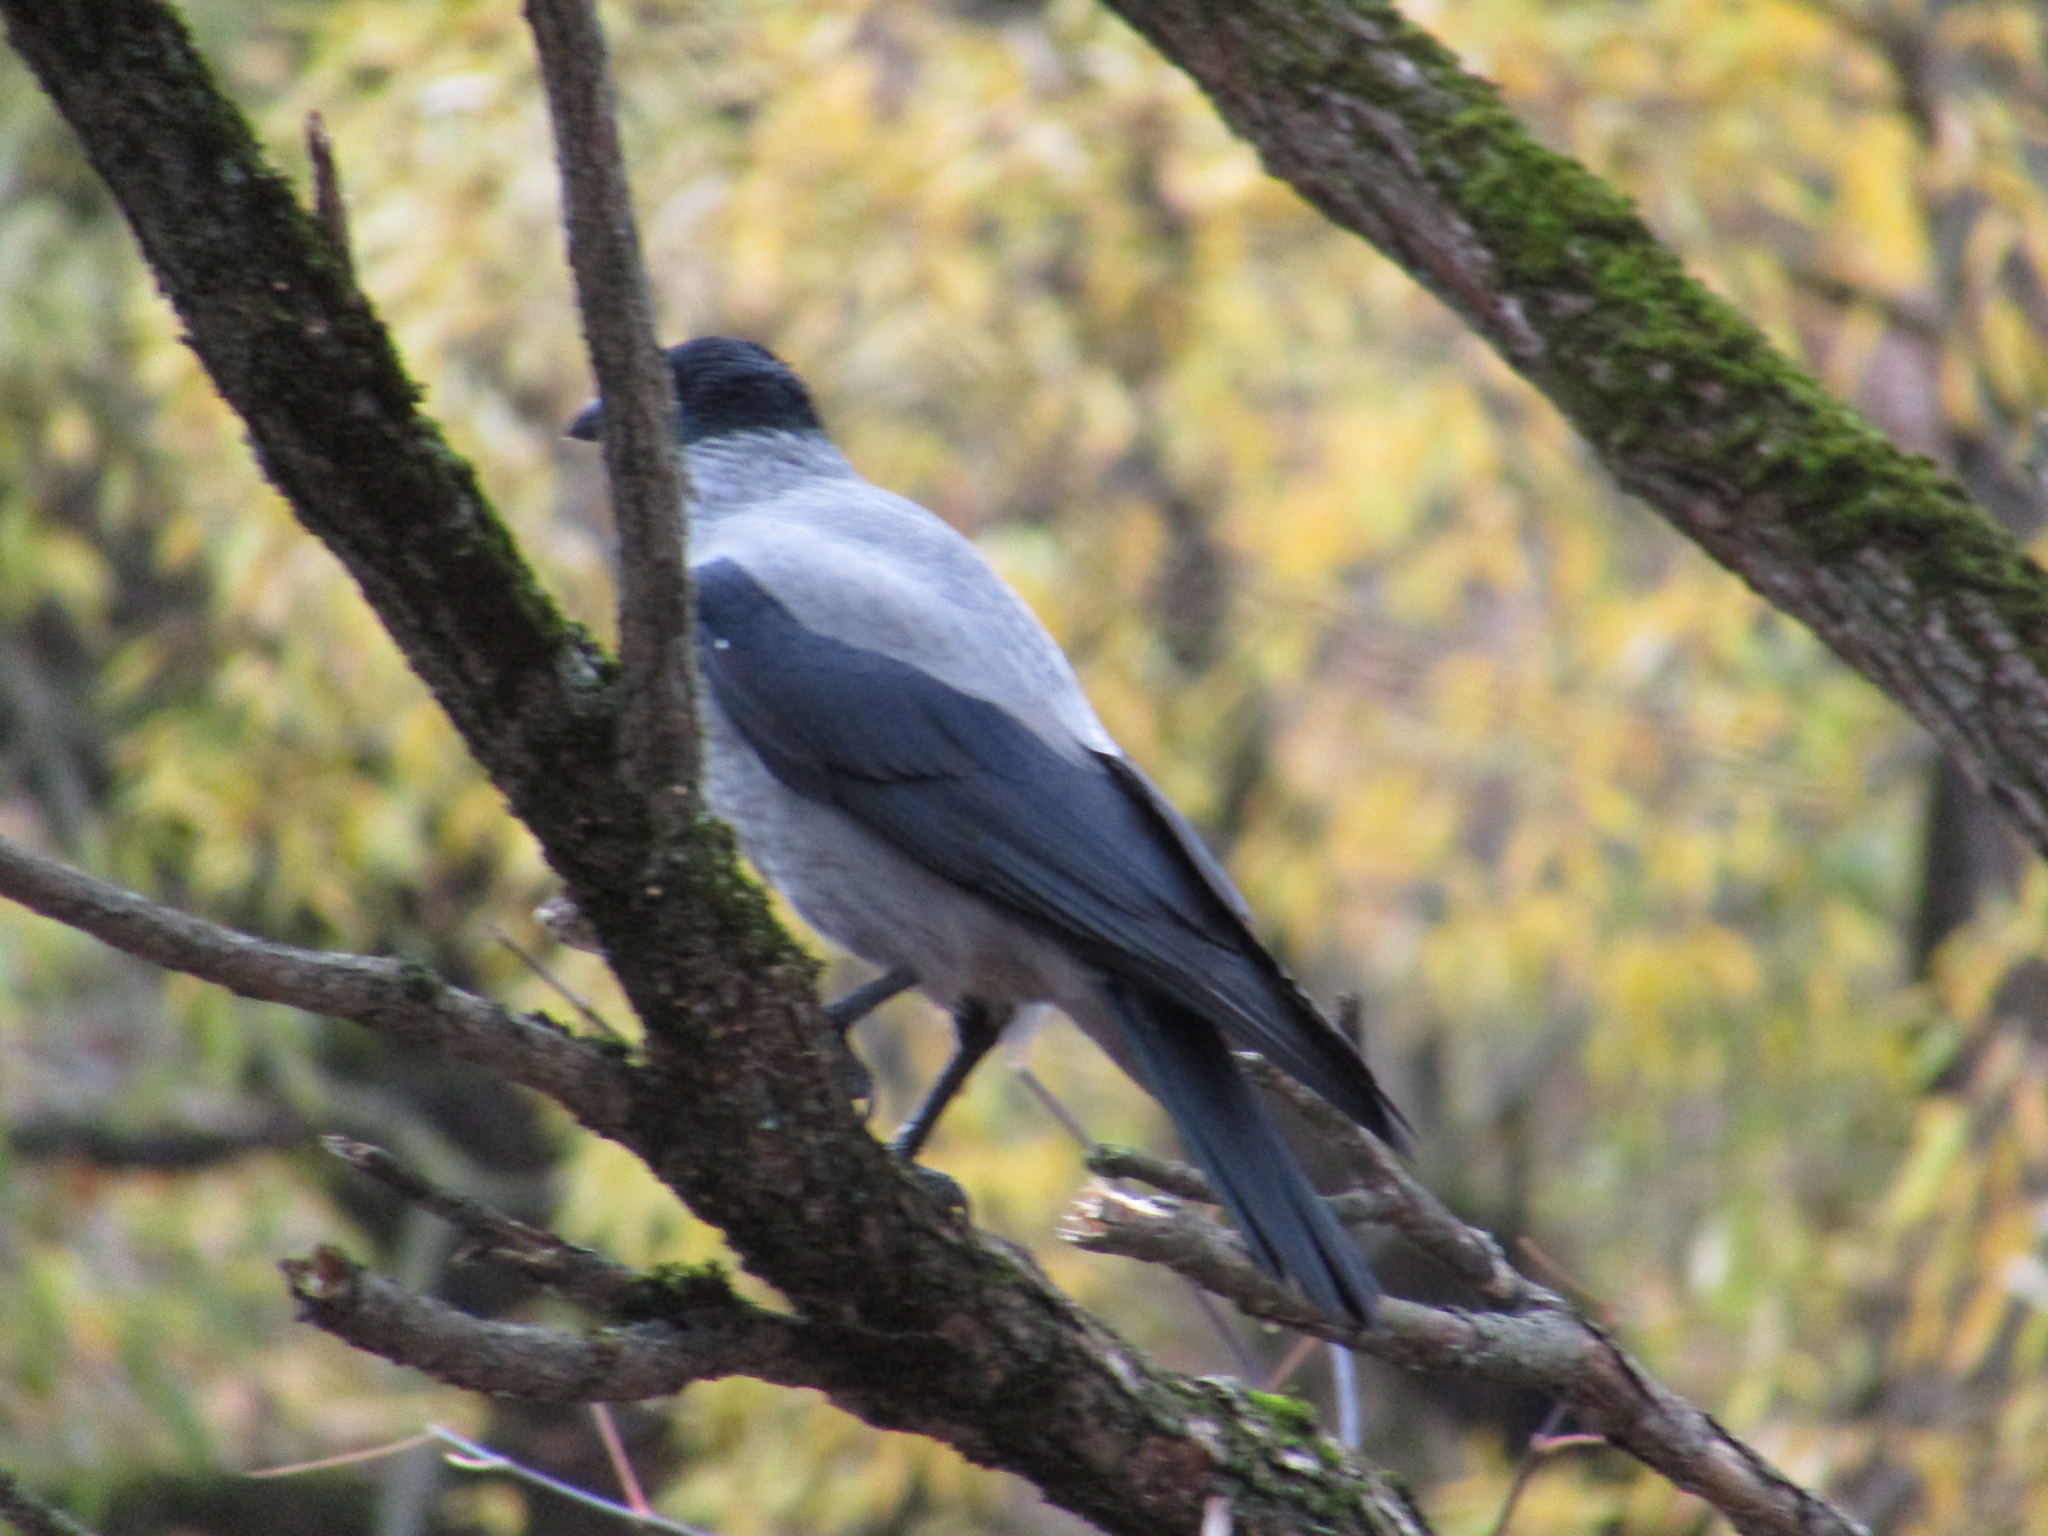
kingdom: Animalia
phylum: Chordata
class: Aves
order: Passeriformes
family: Corvidae
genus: Corvus
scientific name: Corvus cornix
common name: Hooded crow
